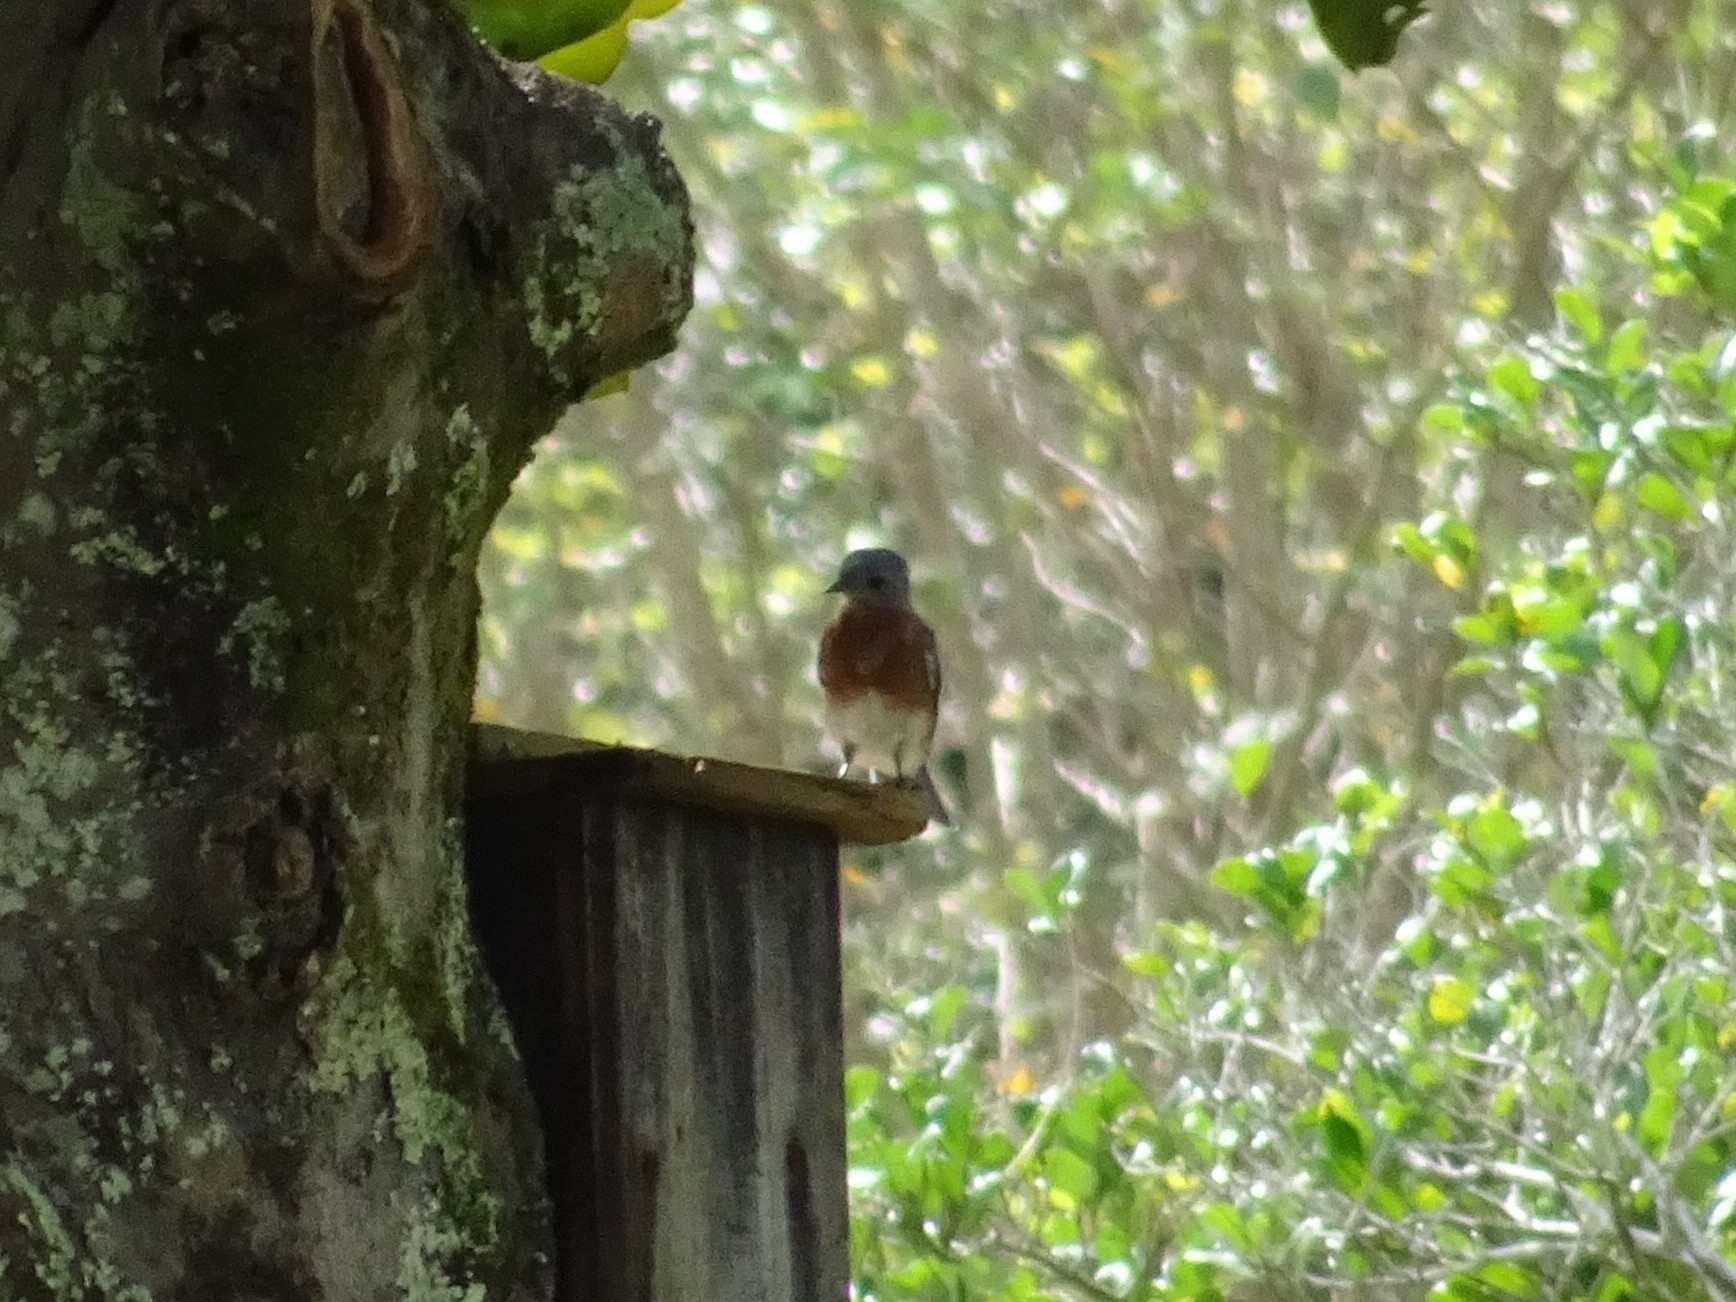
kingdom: Animalia
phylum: Chordata
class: Aves
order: Passeriformes
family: Turdidae
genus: Sialia
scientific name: Sialia sialis
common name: Eastern bluebird
